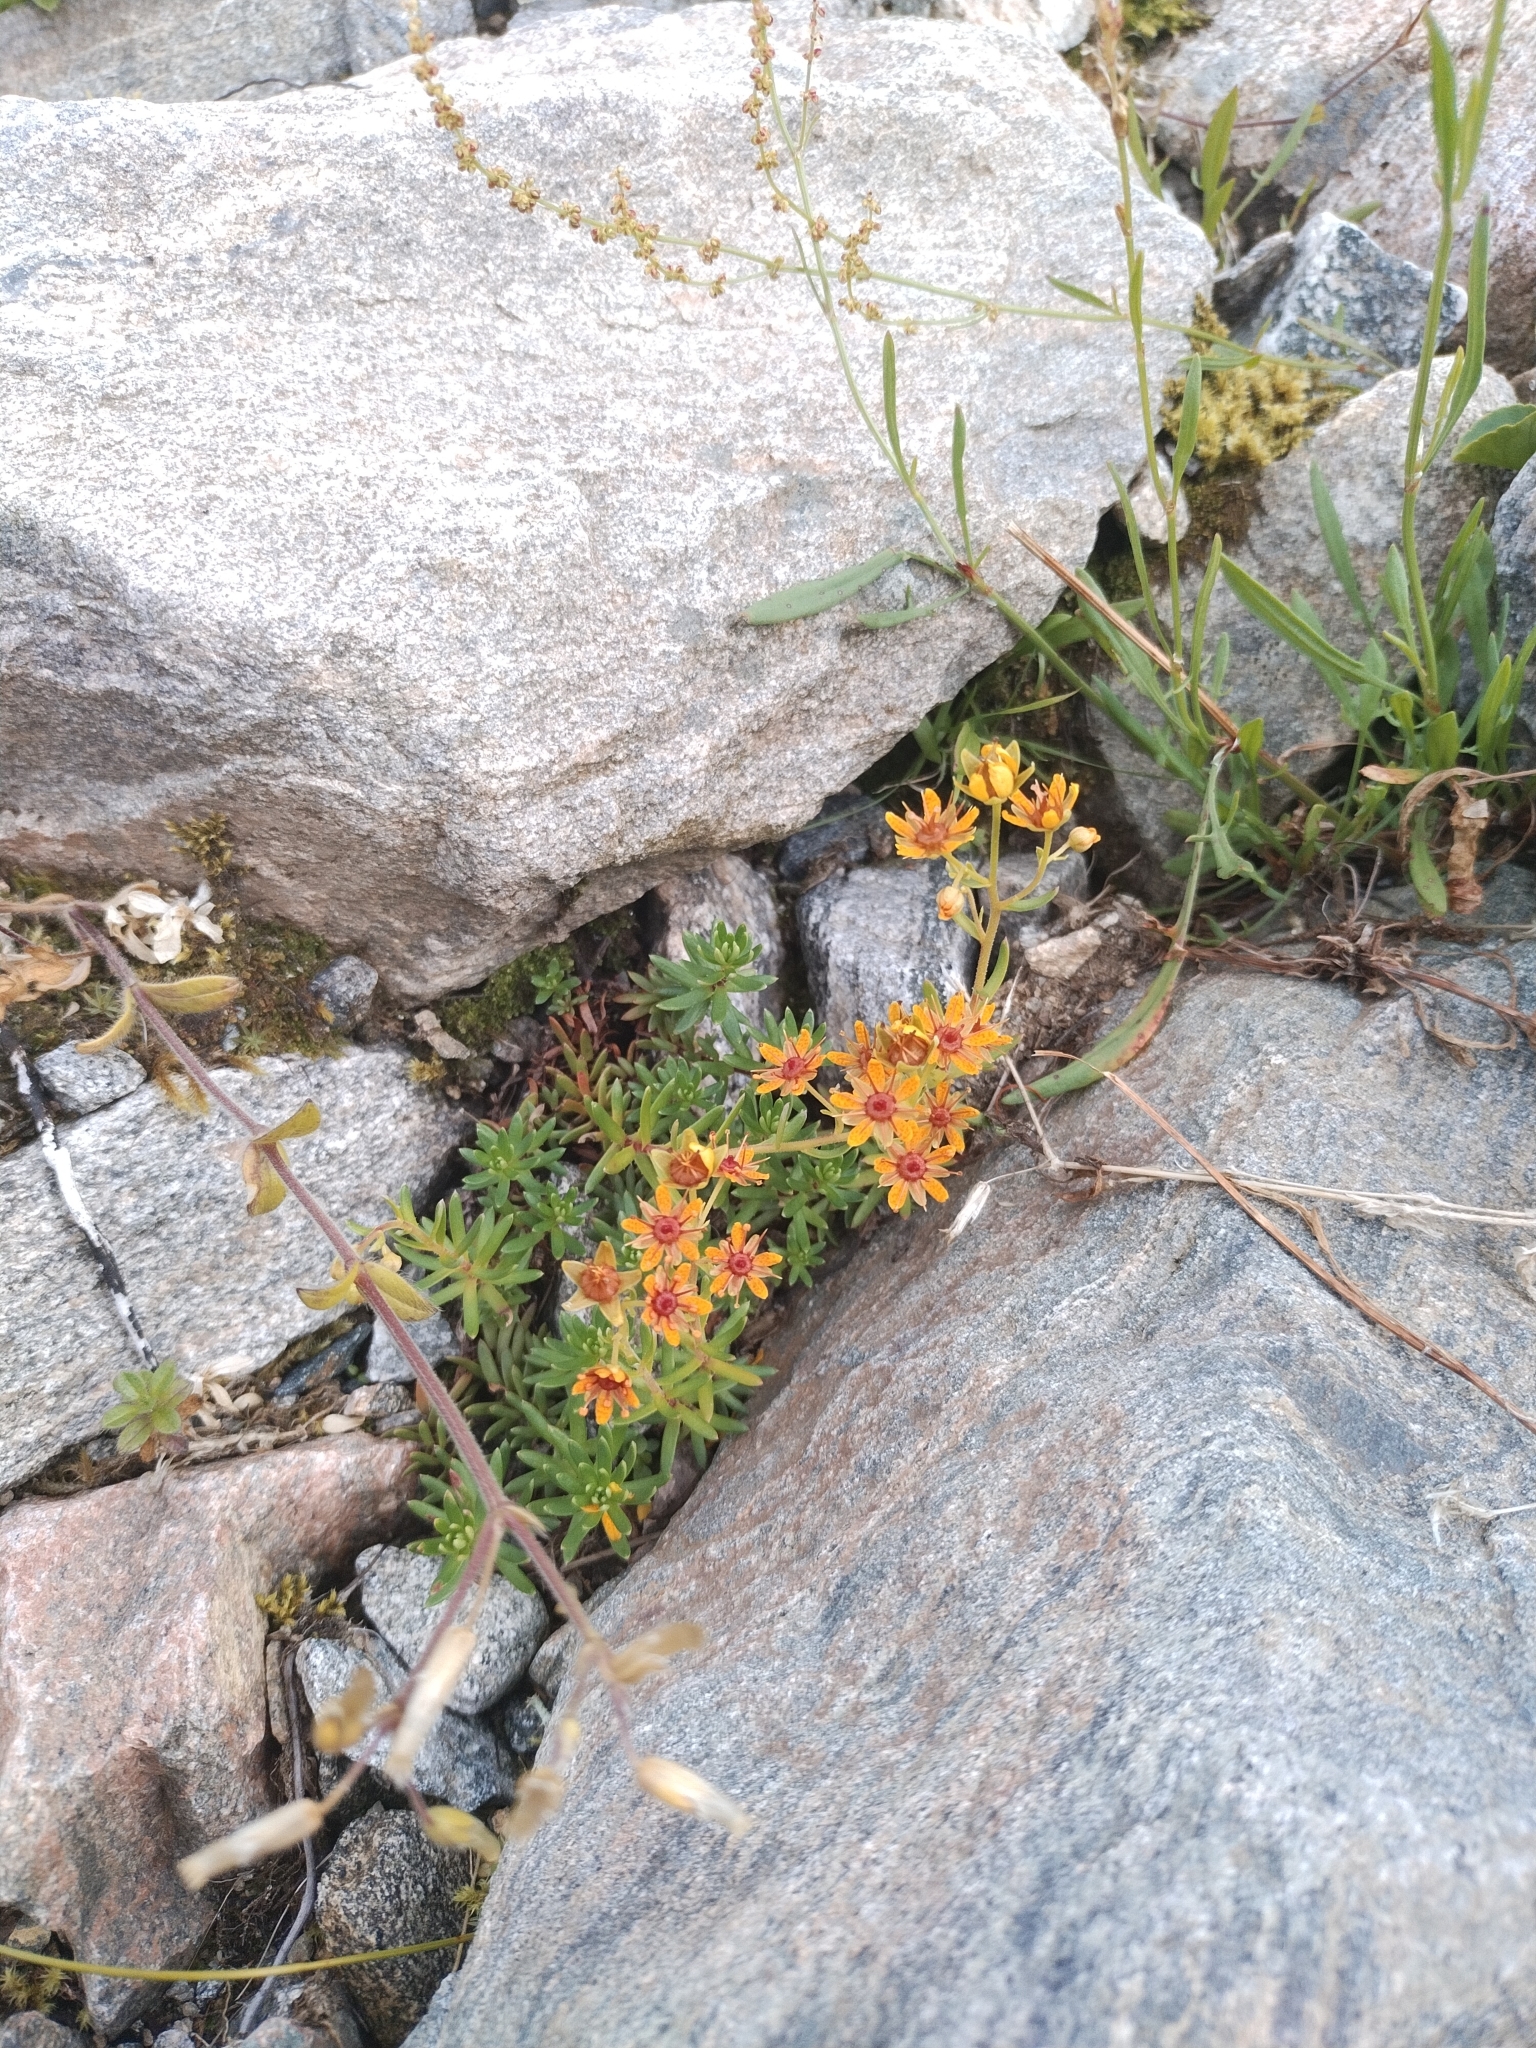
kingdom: Plantae
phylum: Tracheophyta
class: Magnoliopsida
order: Saxifragales
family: Saxifragaceae
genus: Saxifraga
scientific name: Saxifraga aizoides
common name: Yellow mountain saxifrage
